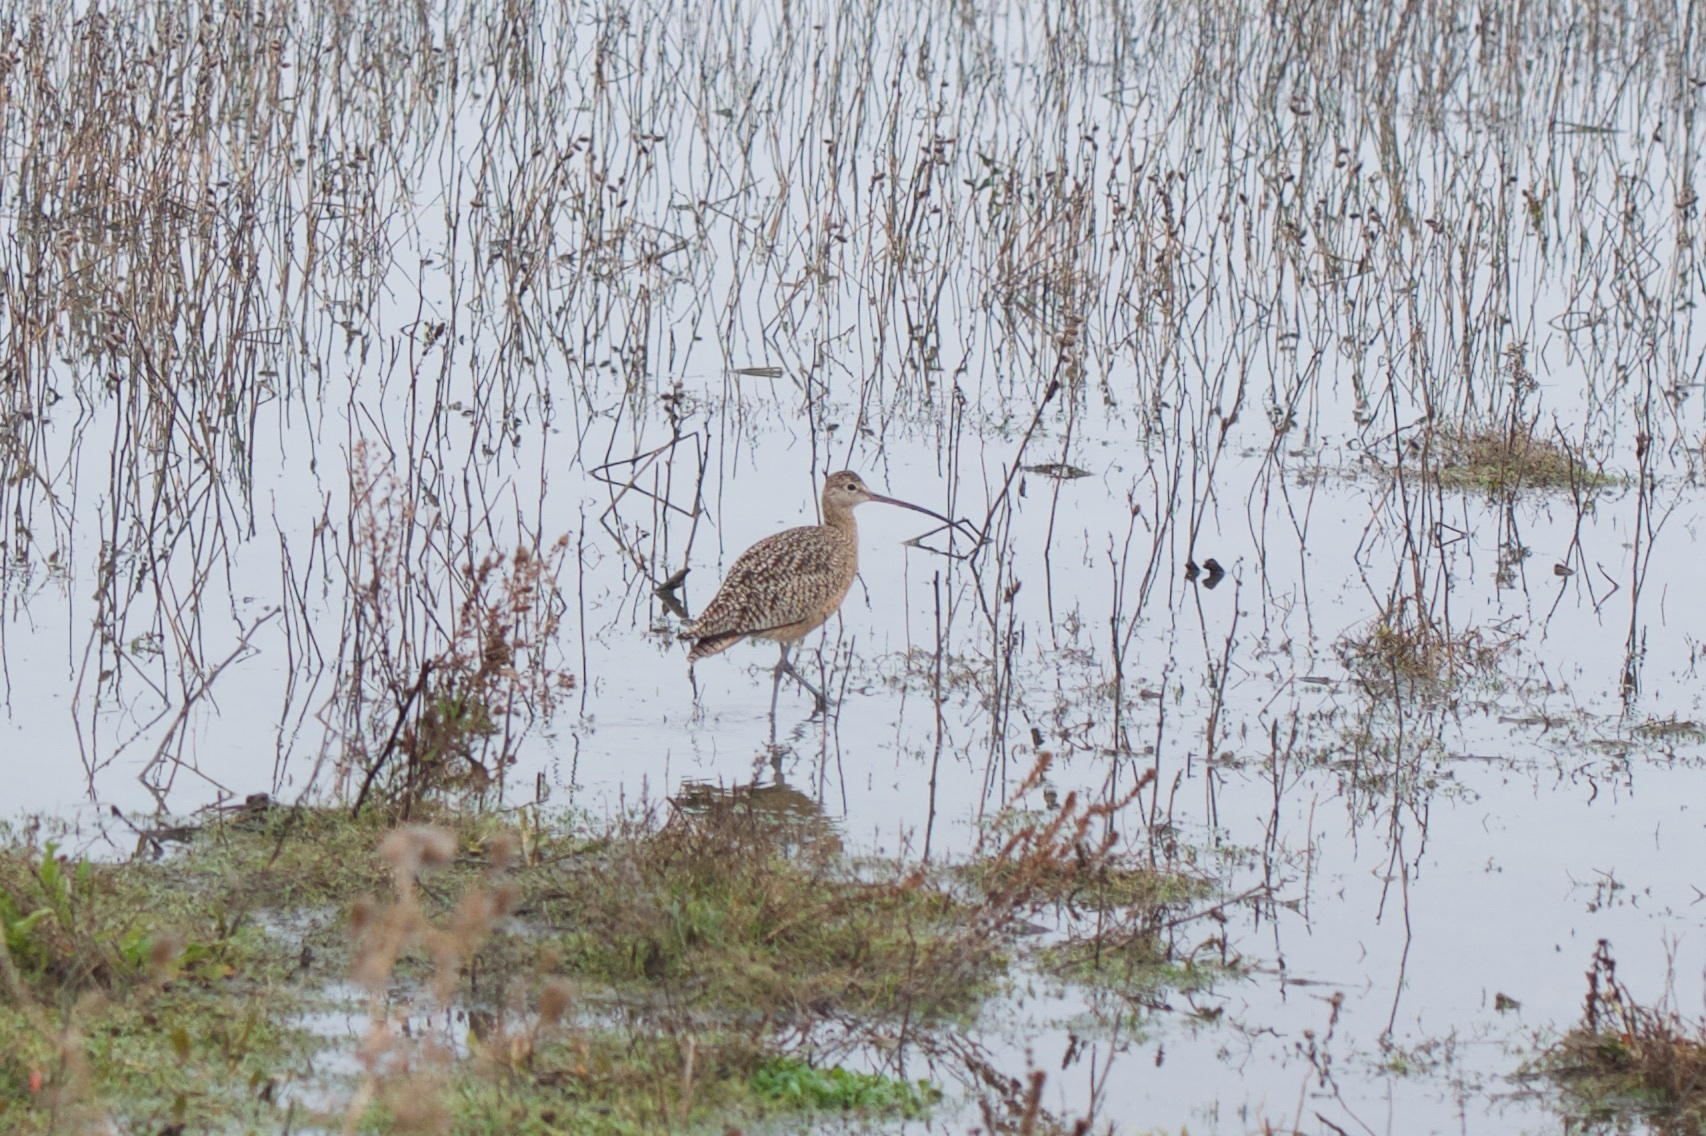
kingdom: Animalia
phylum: Chordata
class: Aves
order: Charadriiformes
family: Scolopacidae
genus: Numenius
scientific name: Numenius americanus
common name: Long-billed curlew
